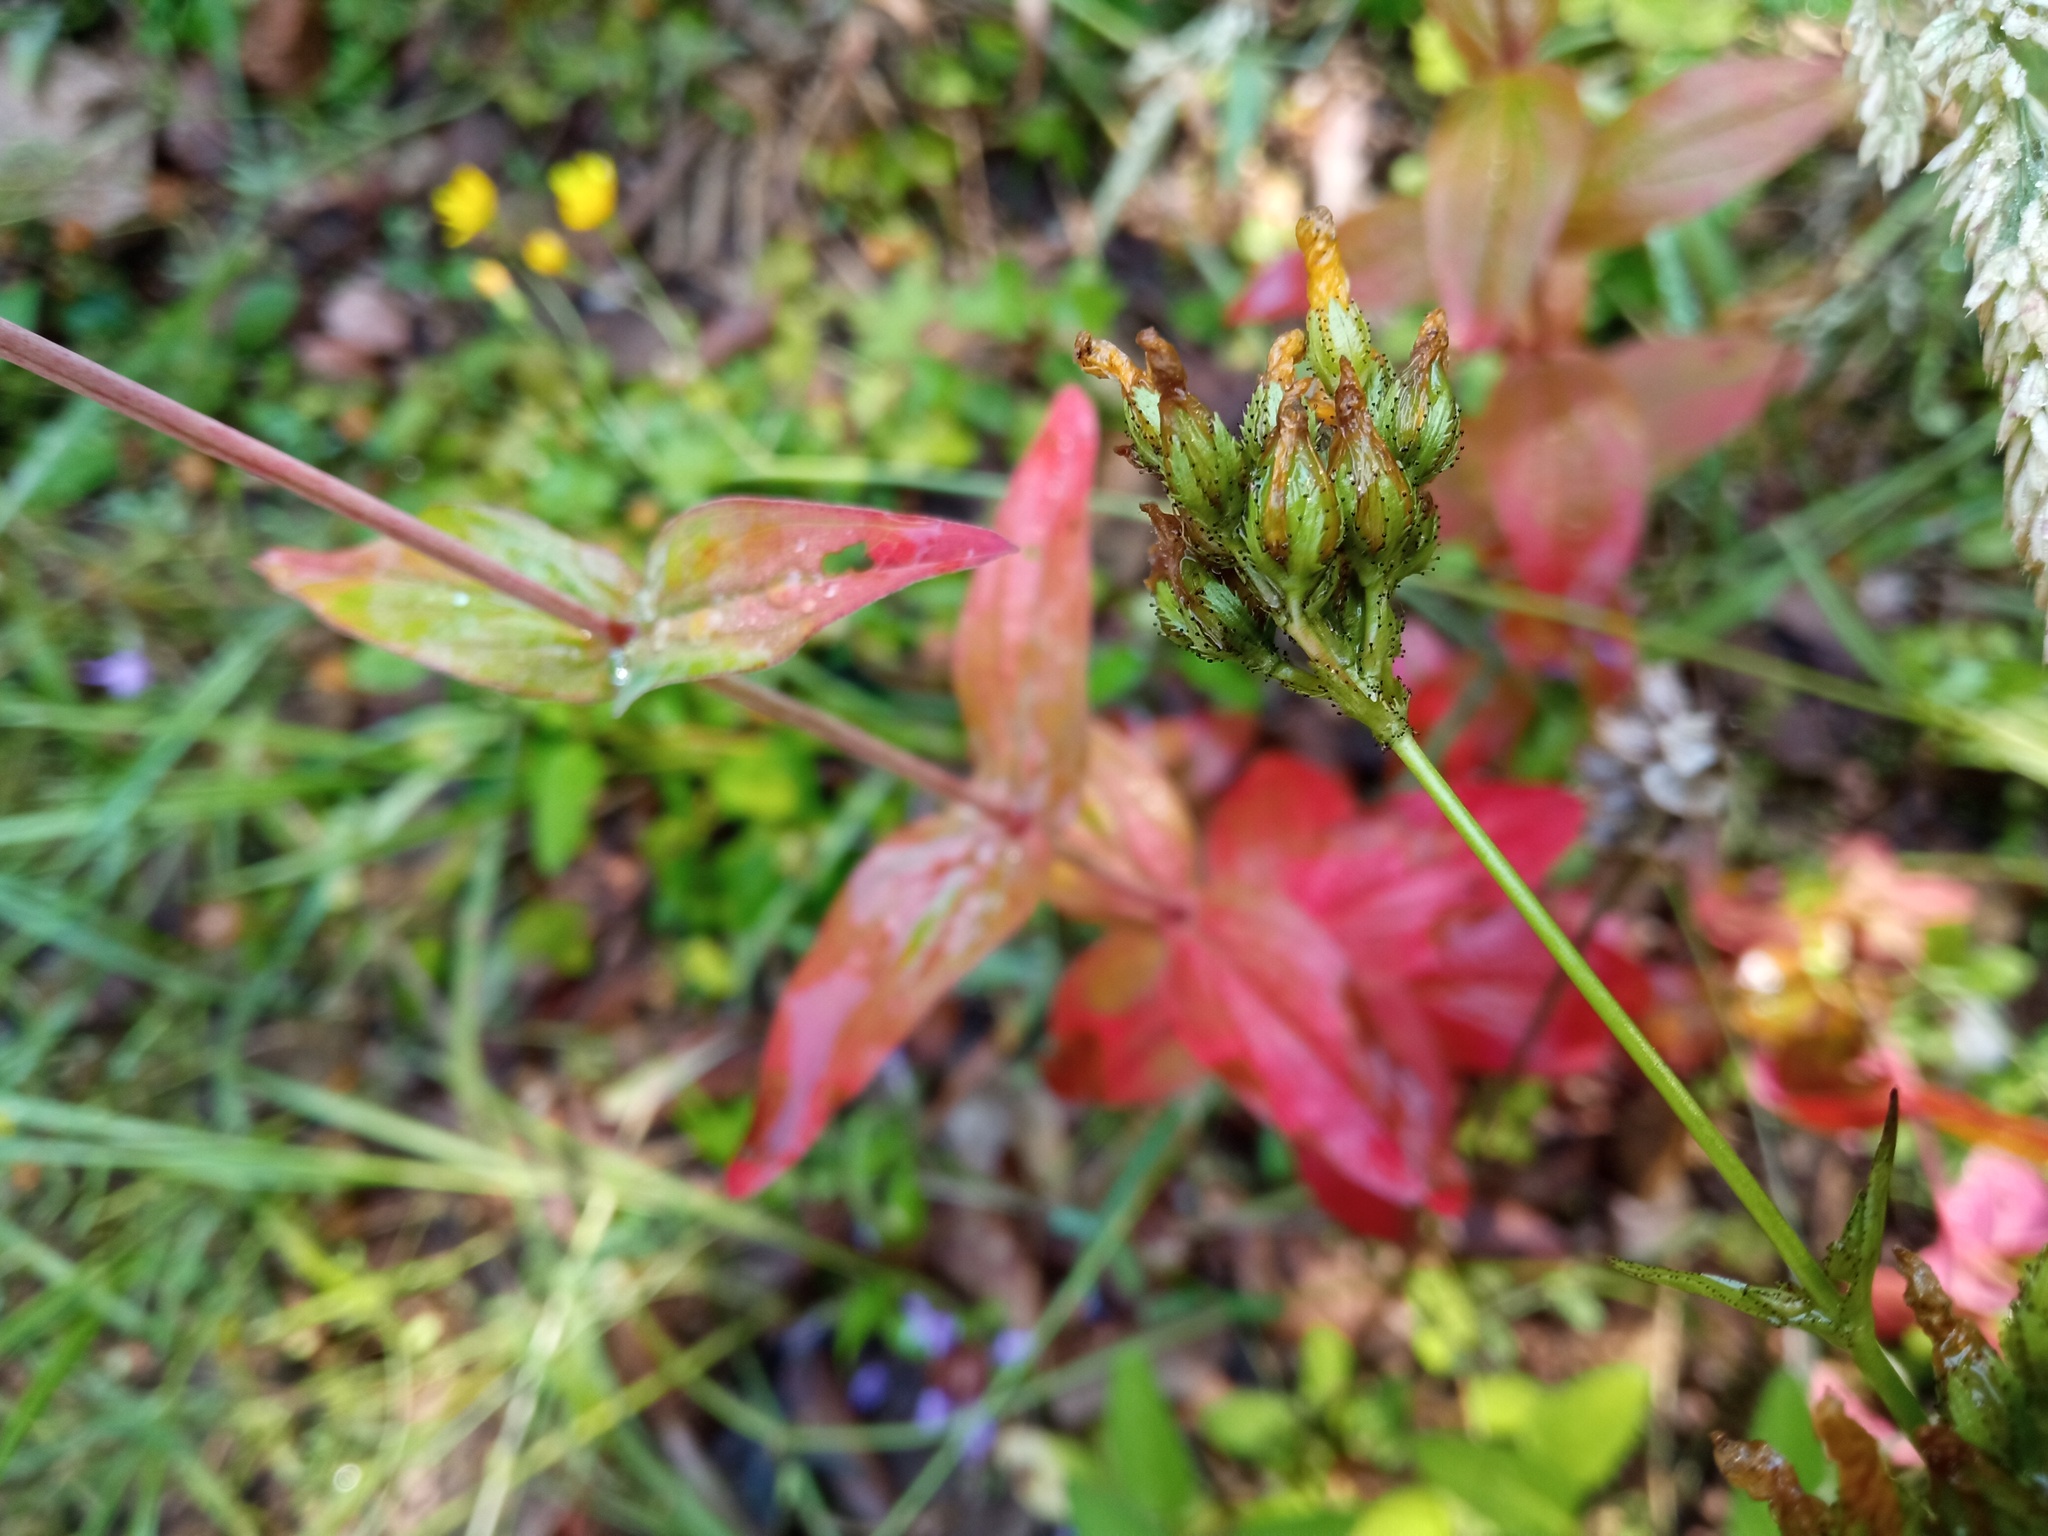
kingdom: Plantae
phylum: Tracheophyta
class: Magnoliopsida
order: Malpighiales
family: Hypericaceae
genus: Hypericum
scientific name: Hypericum montanum
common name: Pale st. john's-wort
